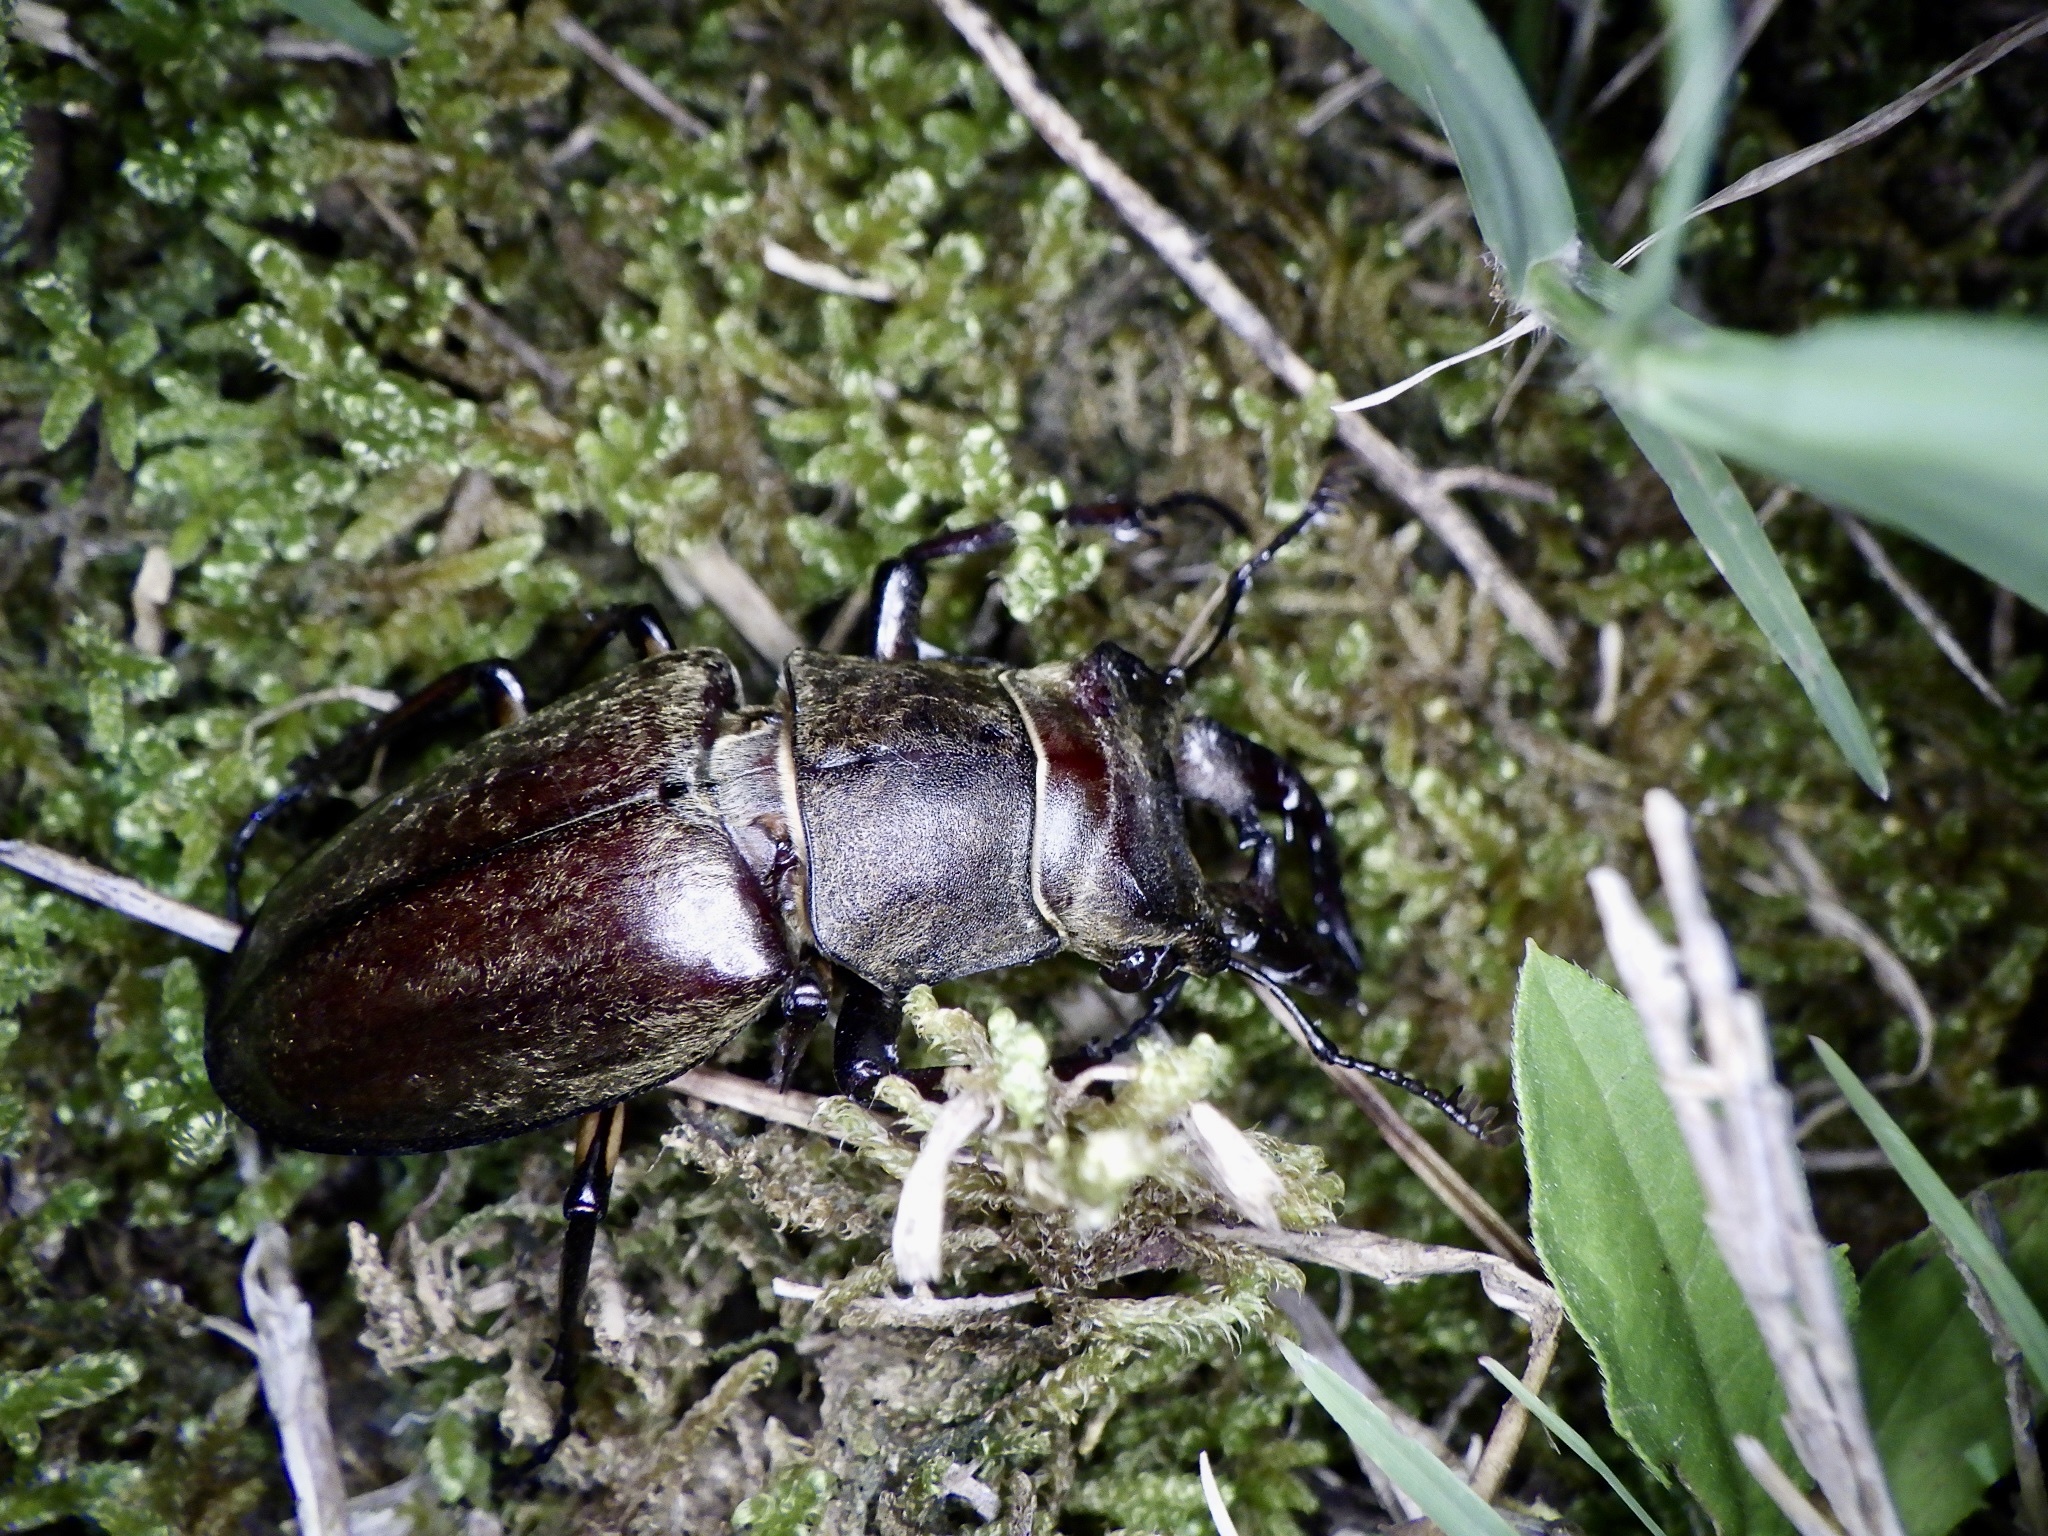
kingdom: Animalia
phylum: Arthropoda
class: Insecta
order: Coleoptera
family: Lucanidae
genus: Lucanus
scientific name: Lucanus maculifemoratus
